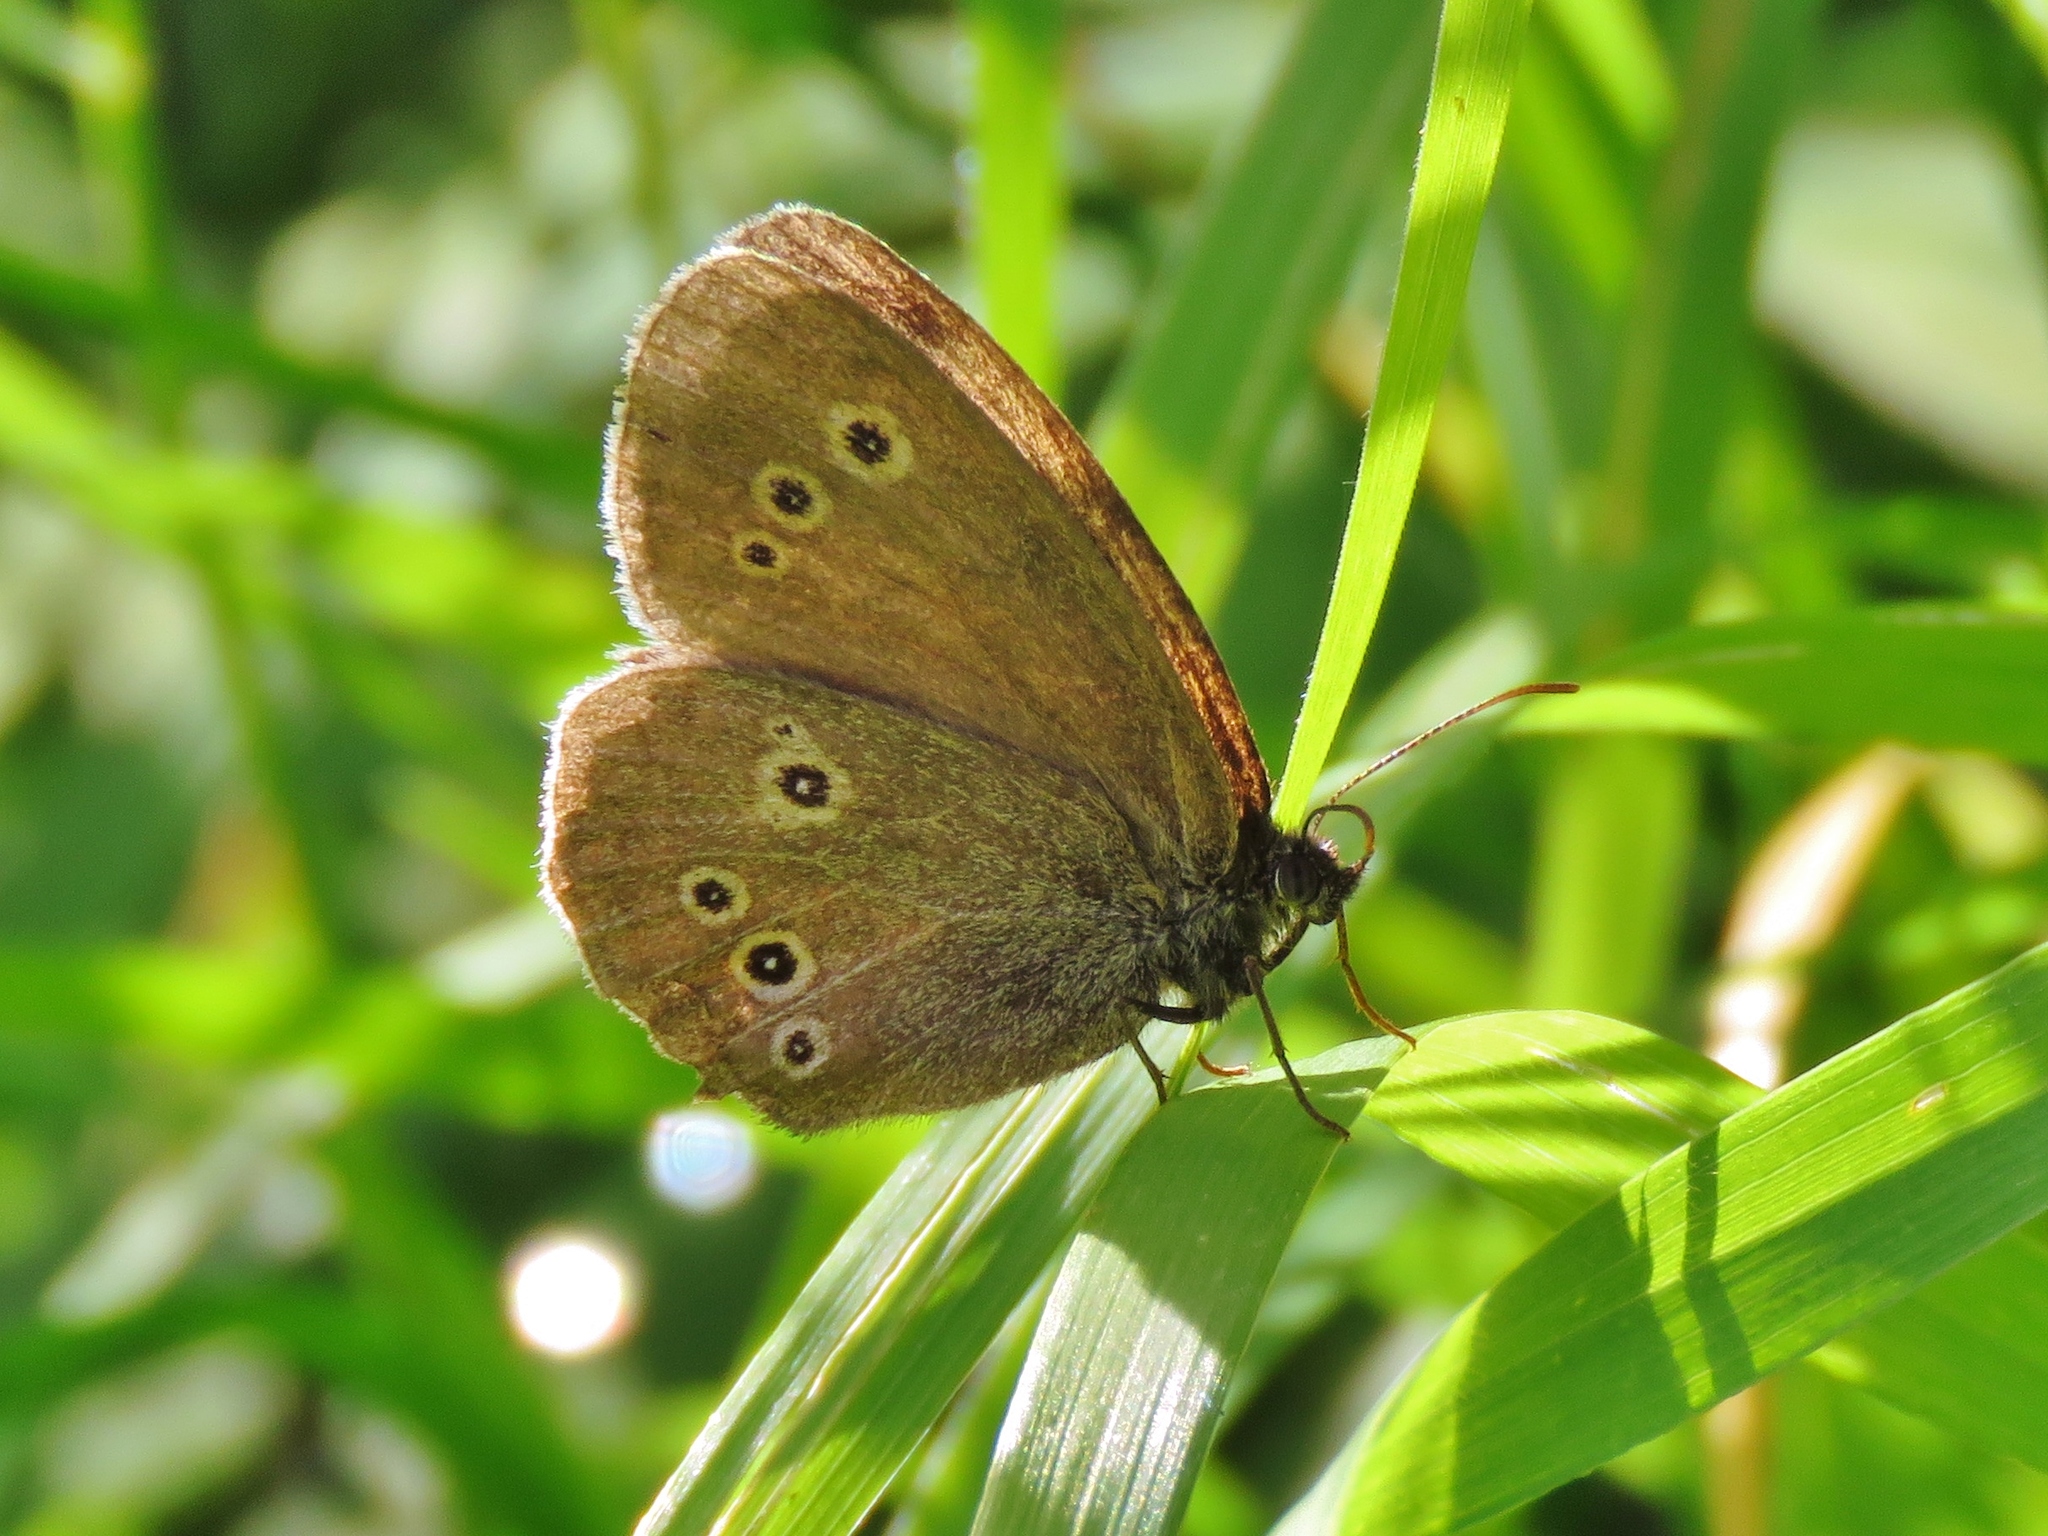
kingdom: Animalia
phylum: Arthropoda
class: Insecta
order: Lepidoptera
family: Nymphalidae
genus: Aphantopus
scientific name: Aphantopus hyperantus
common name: Ringlet
